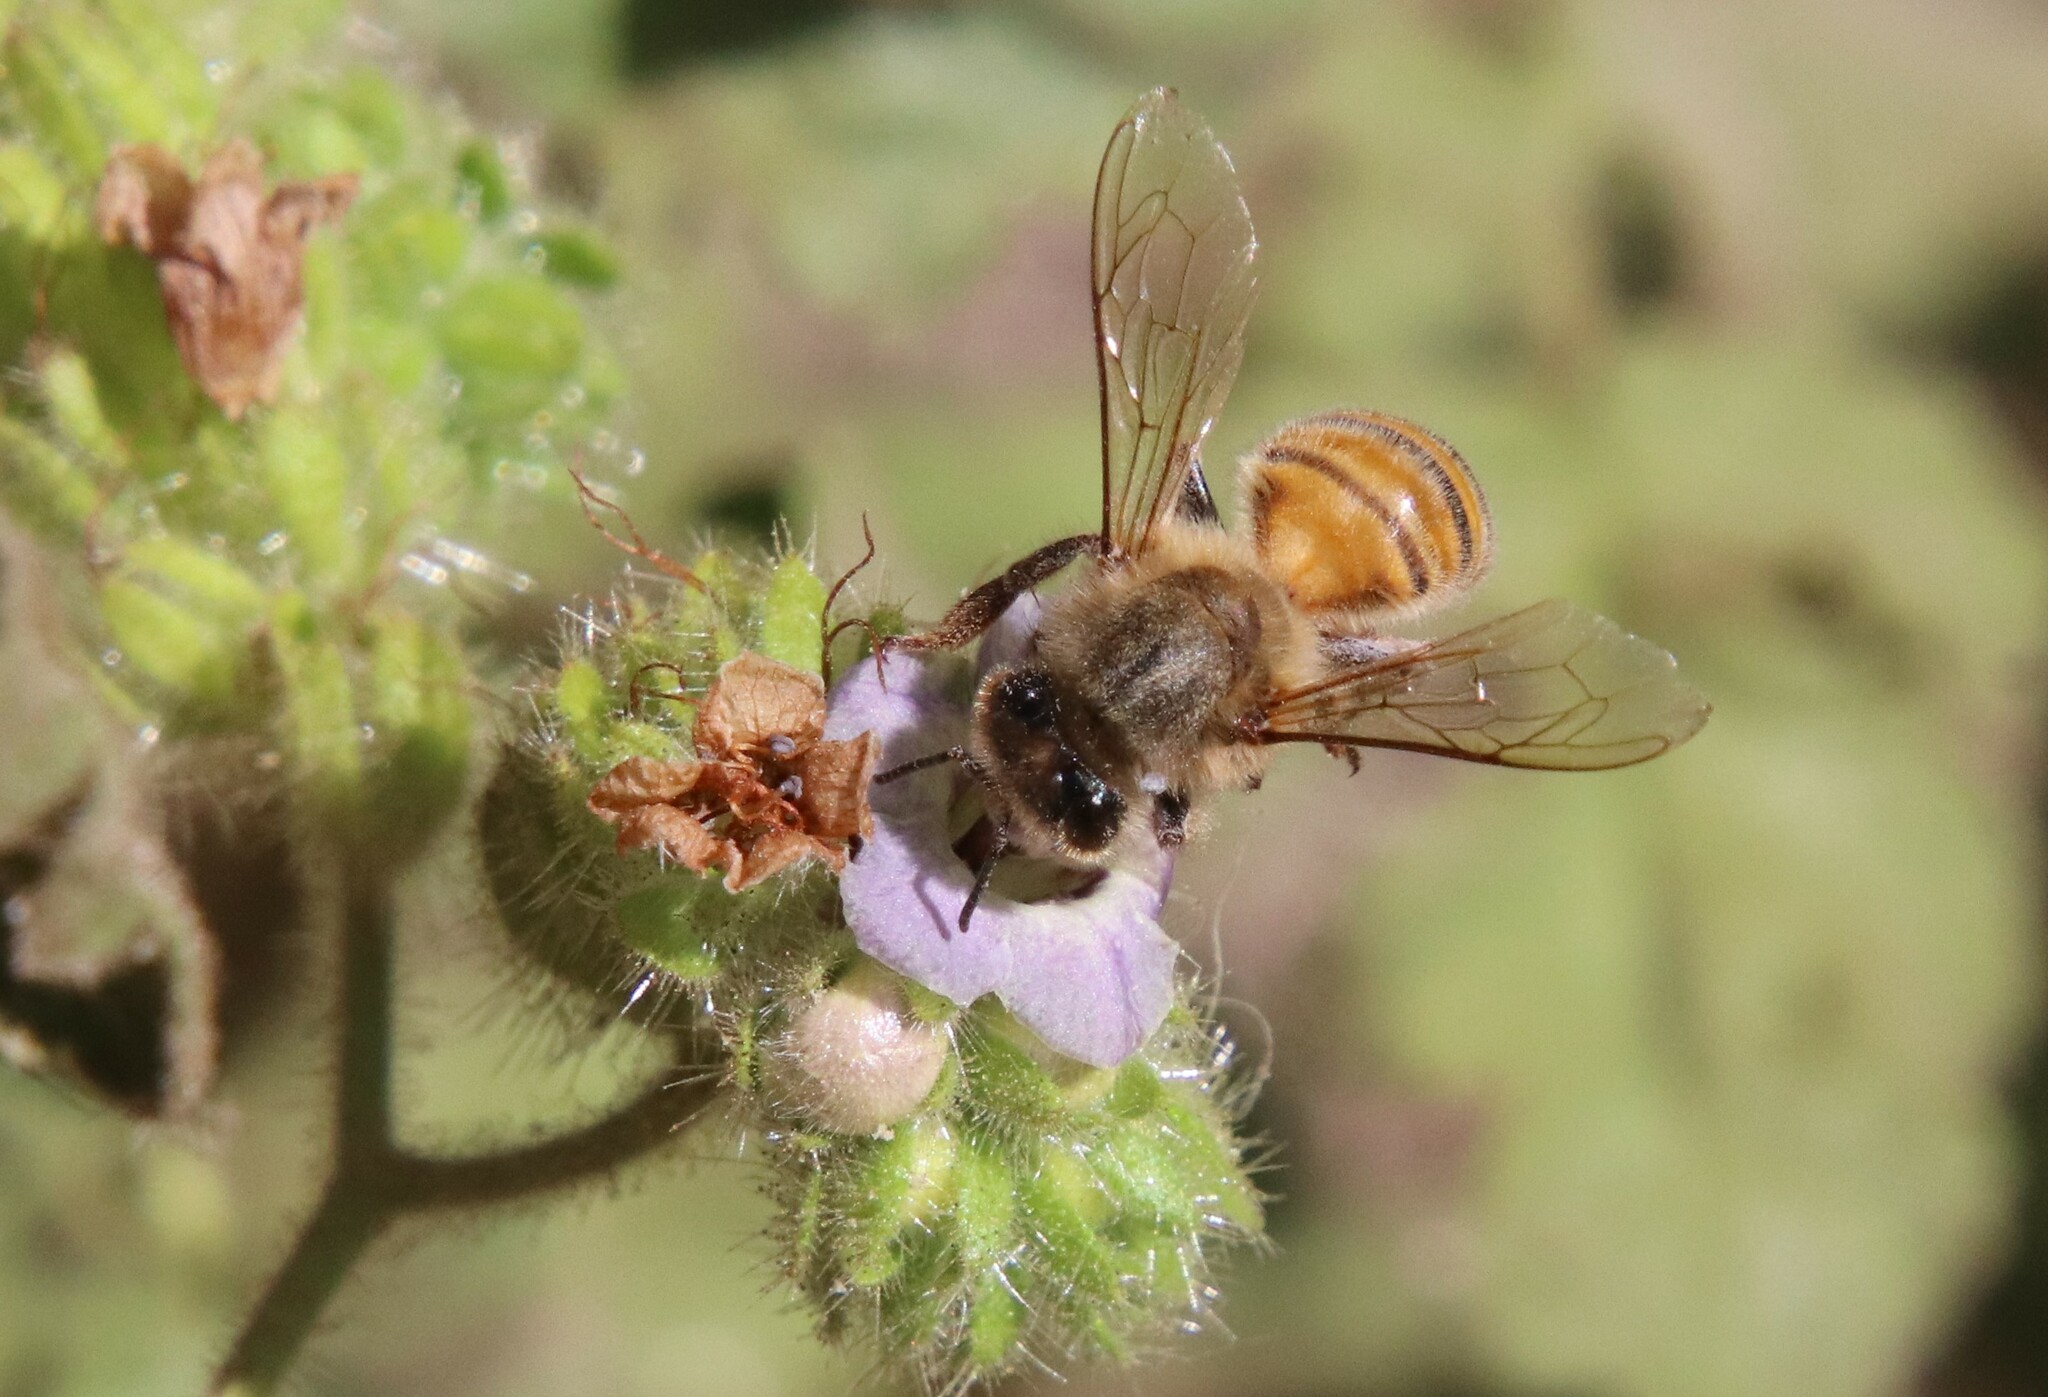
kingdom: Animalia
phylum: Arthropoda
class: Insecta
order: Hymenoptera
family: Apidae
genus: Apis
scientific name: Apis mellifera
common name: Honey bee
